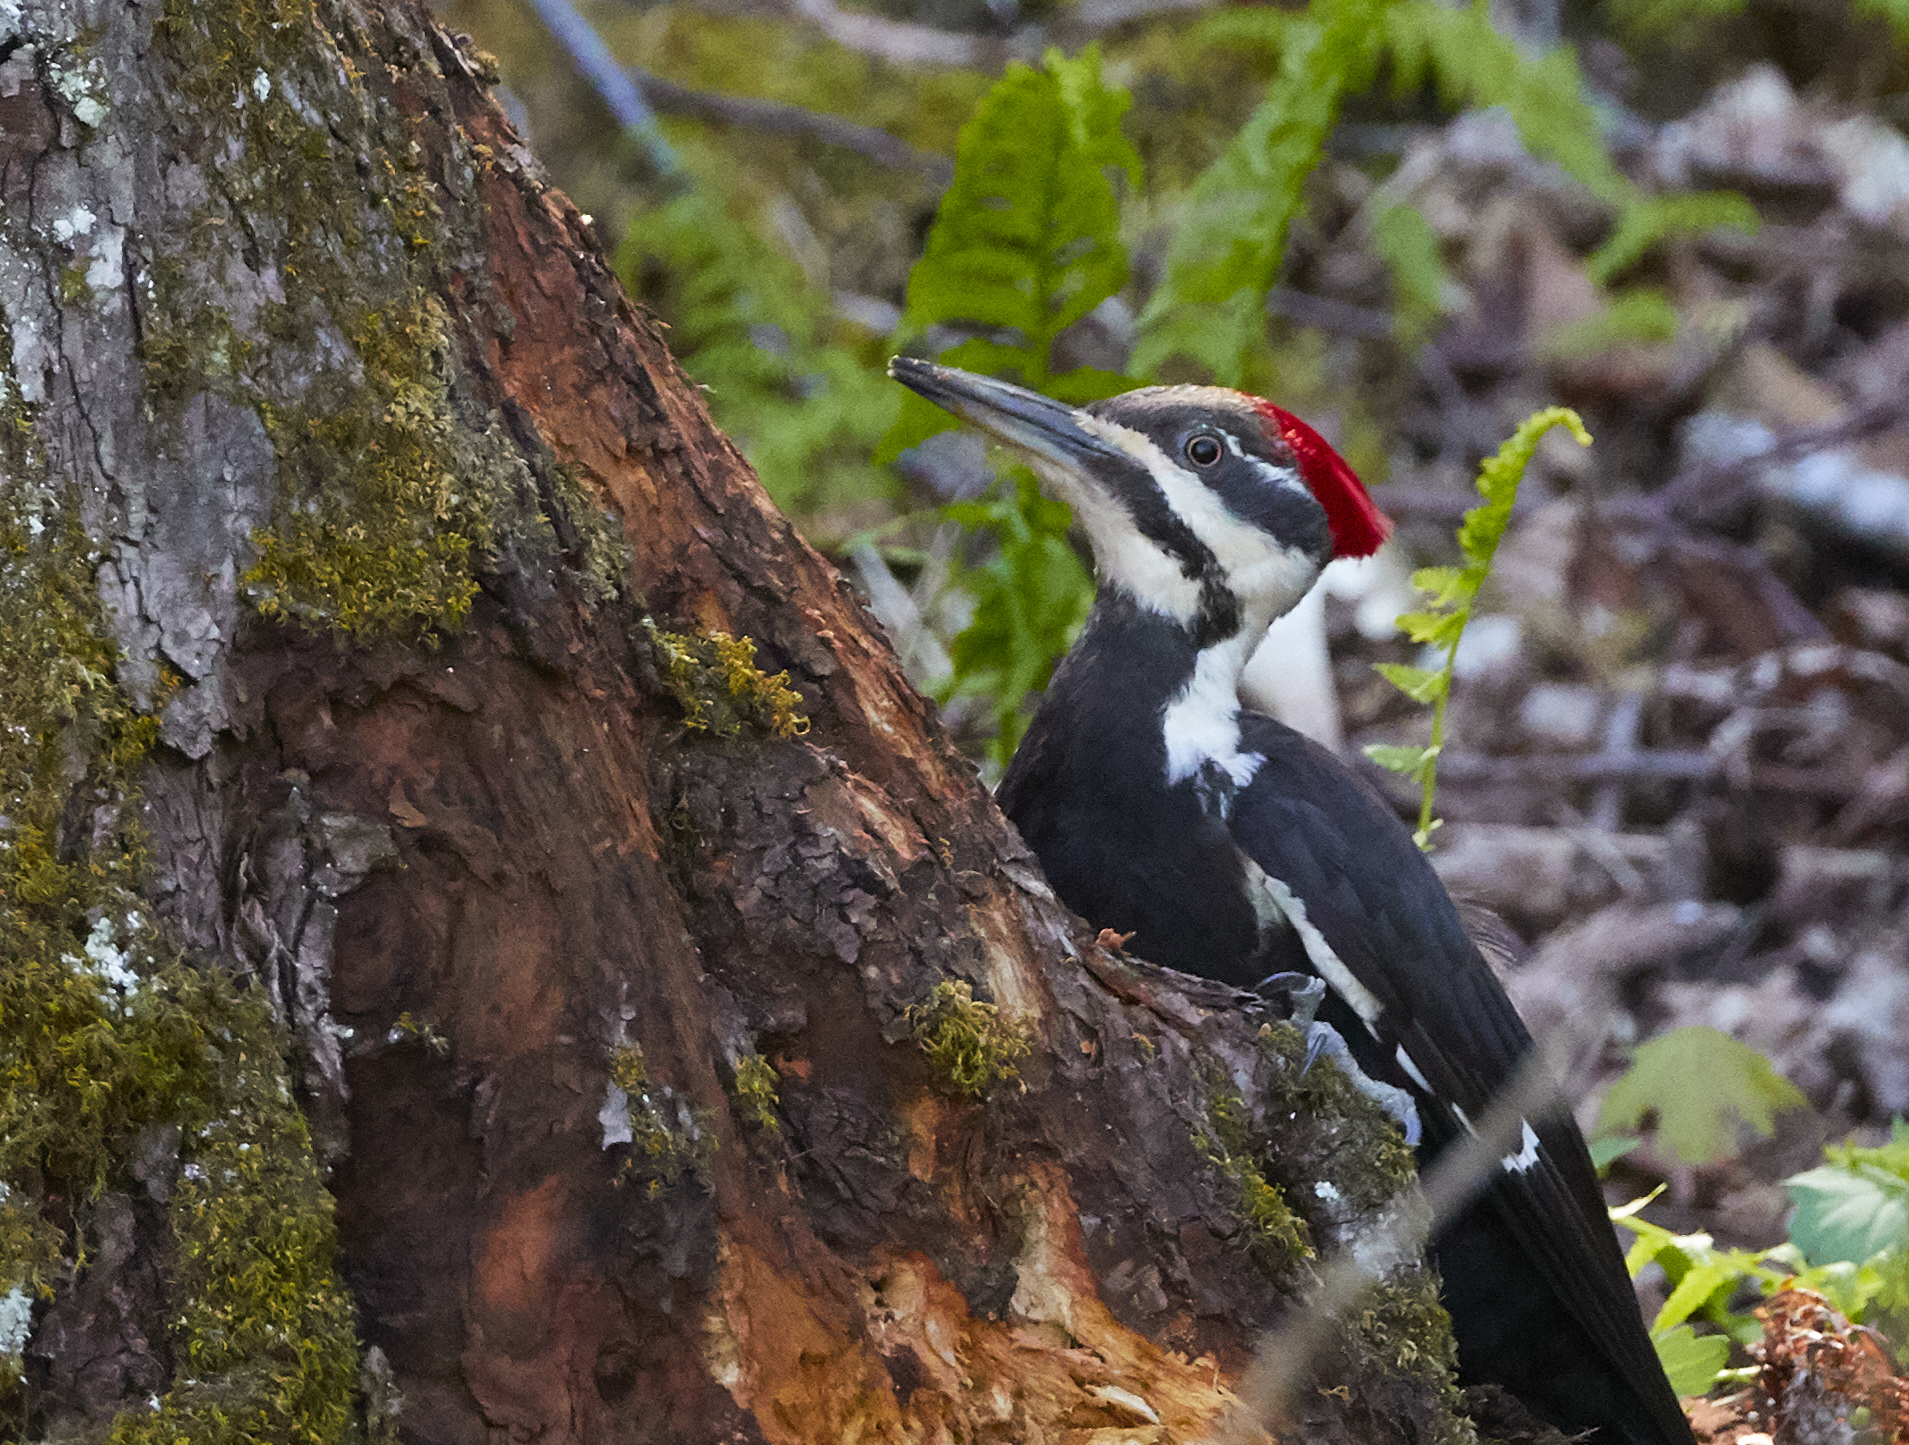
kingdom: Animalia
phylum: Chordata
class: Aves
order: Piciformes
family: Picidae
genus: Dryocopus
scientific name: Dryocopus pileatus
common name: Pileated woodpecker
